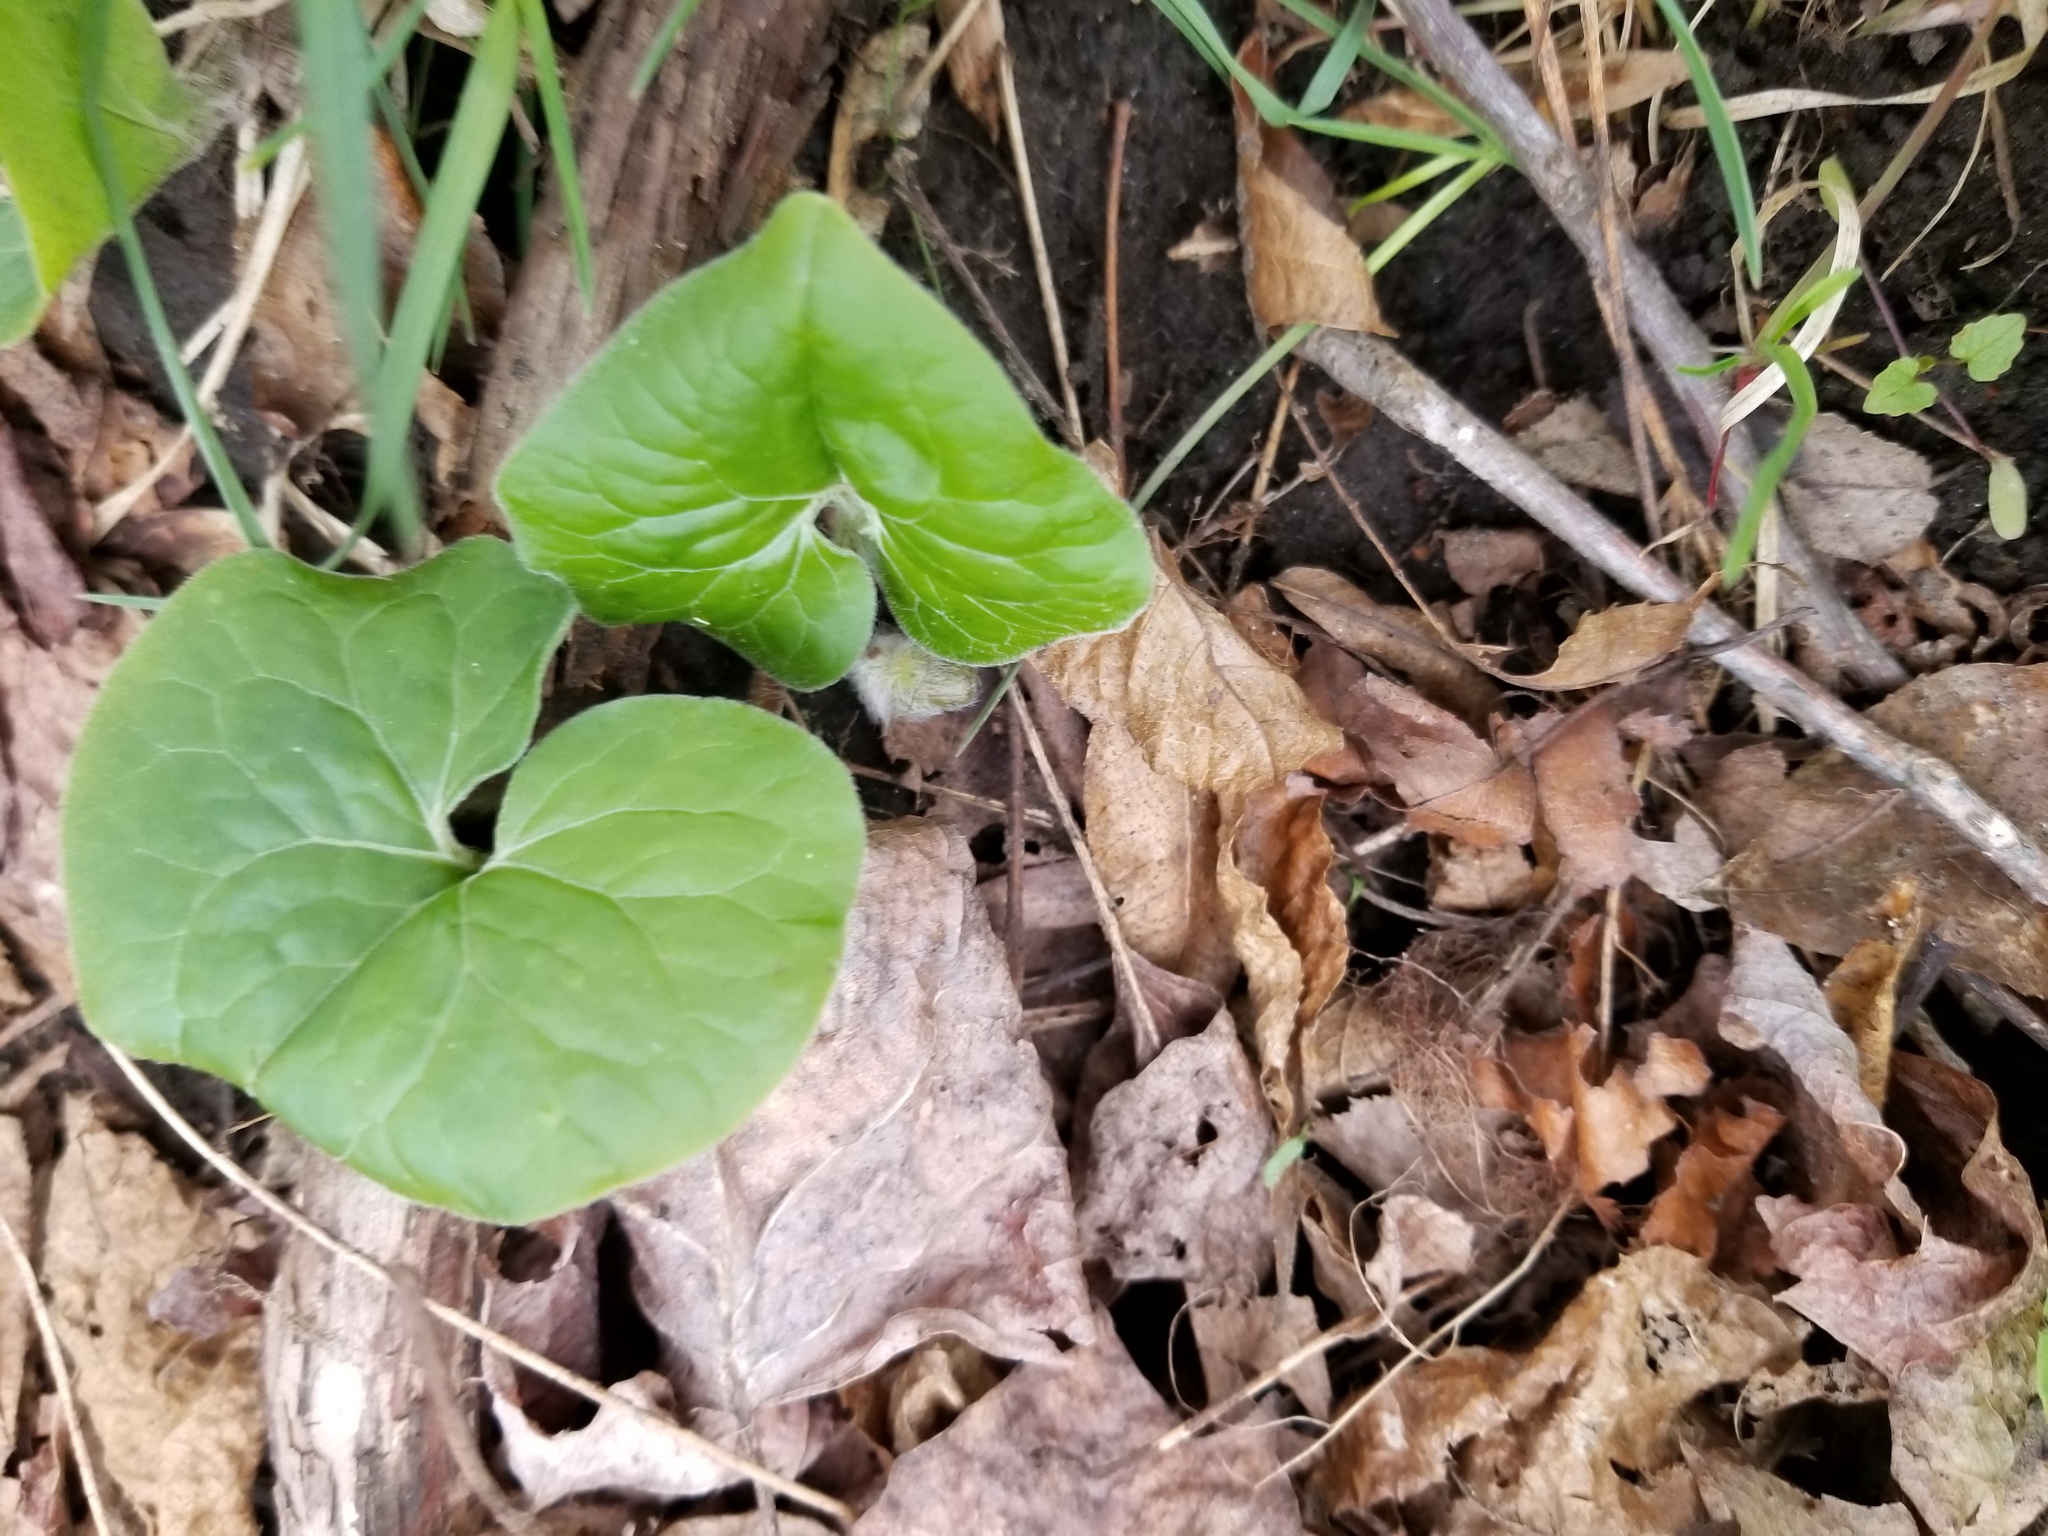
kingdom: Plantae
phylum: Tracheophyta
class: Magnoliopsida
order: Piperales
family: Aristolochiaceae
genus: Asarum
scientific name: Asarum canadense
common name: Wild ginger
